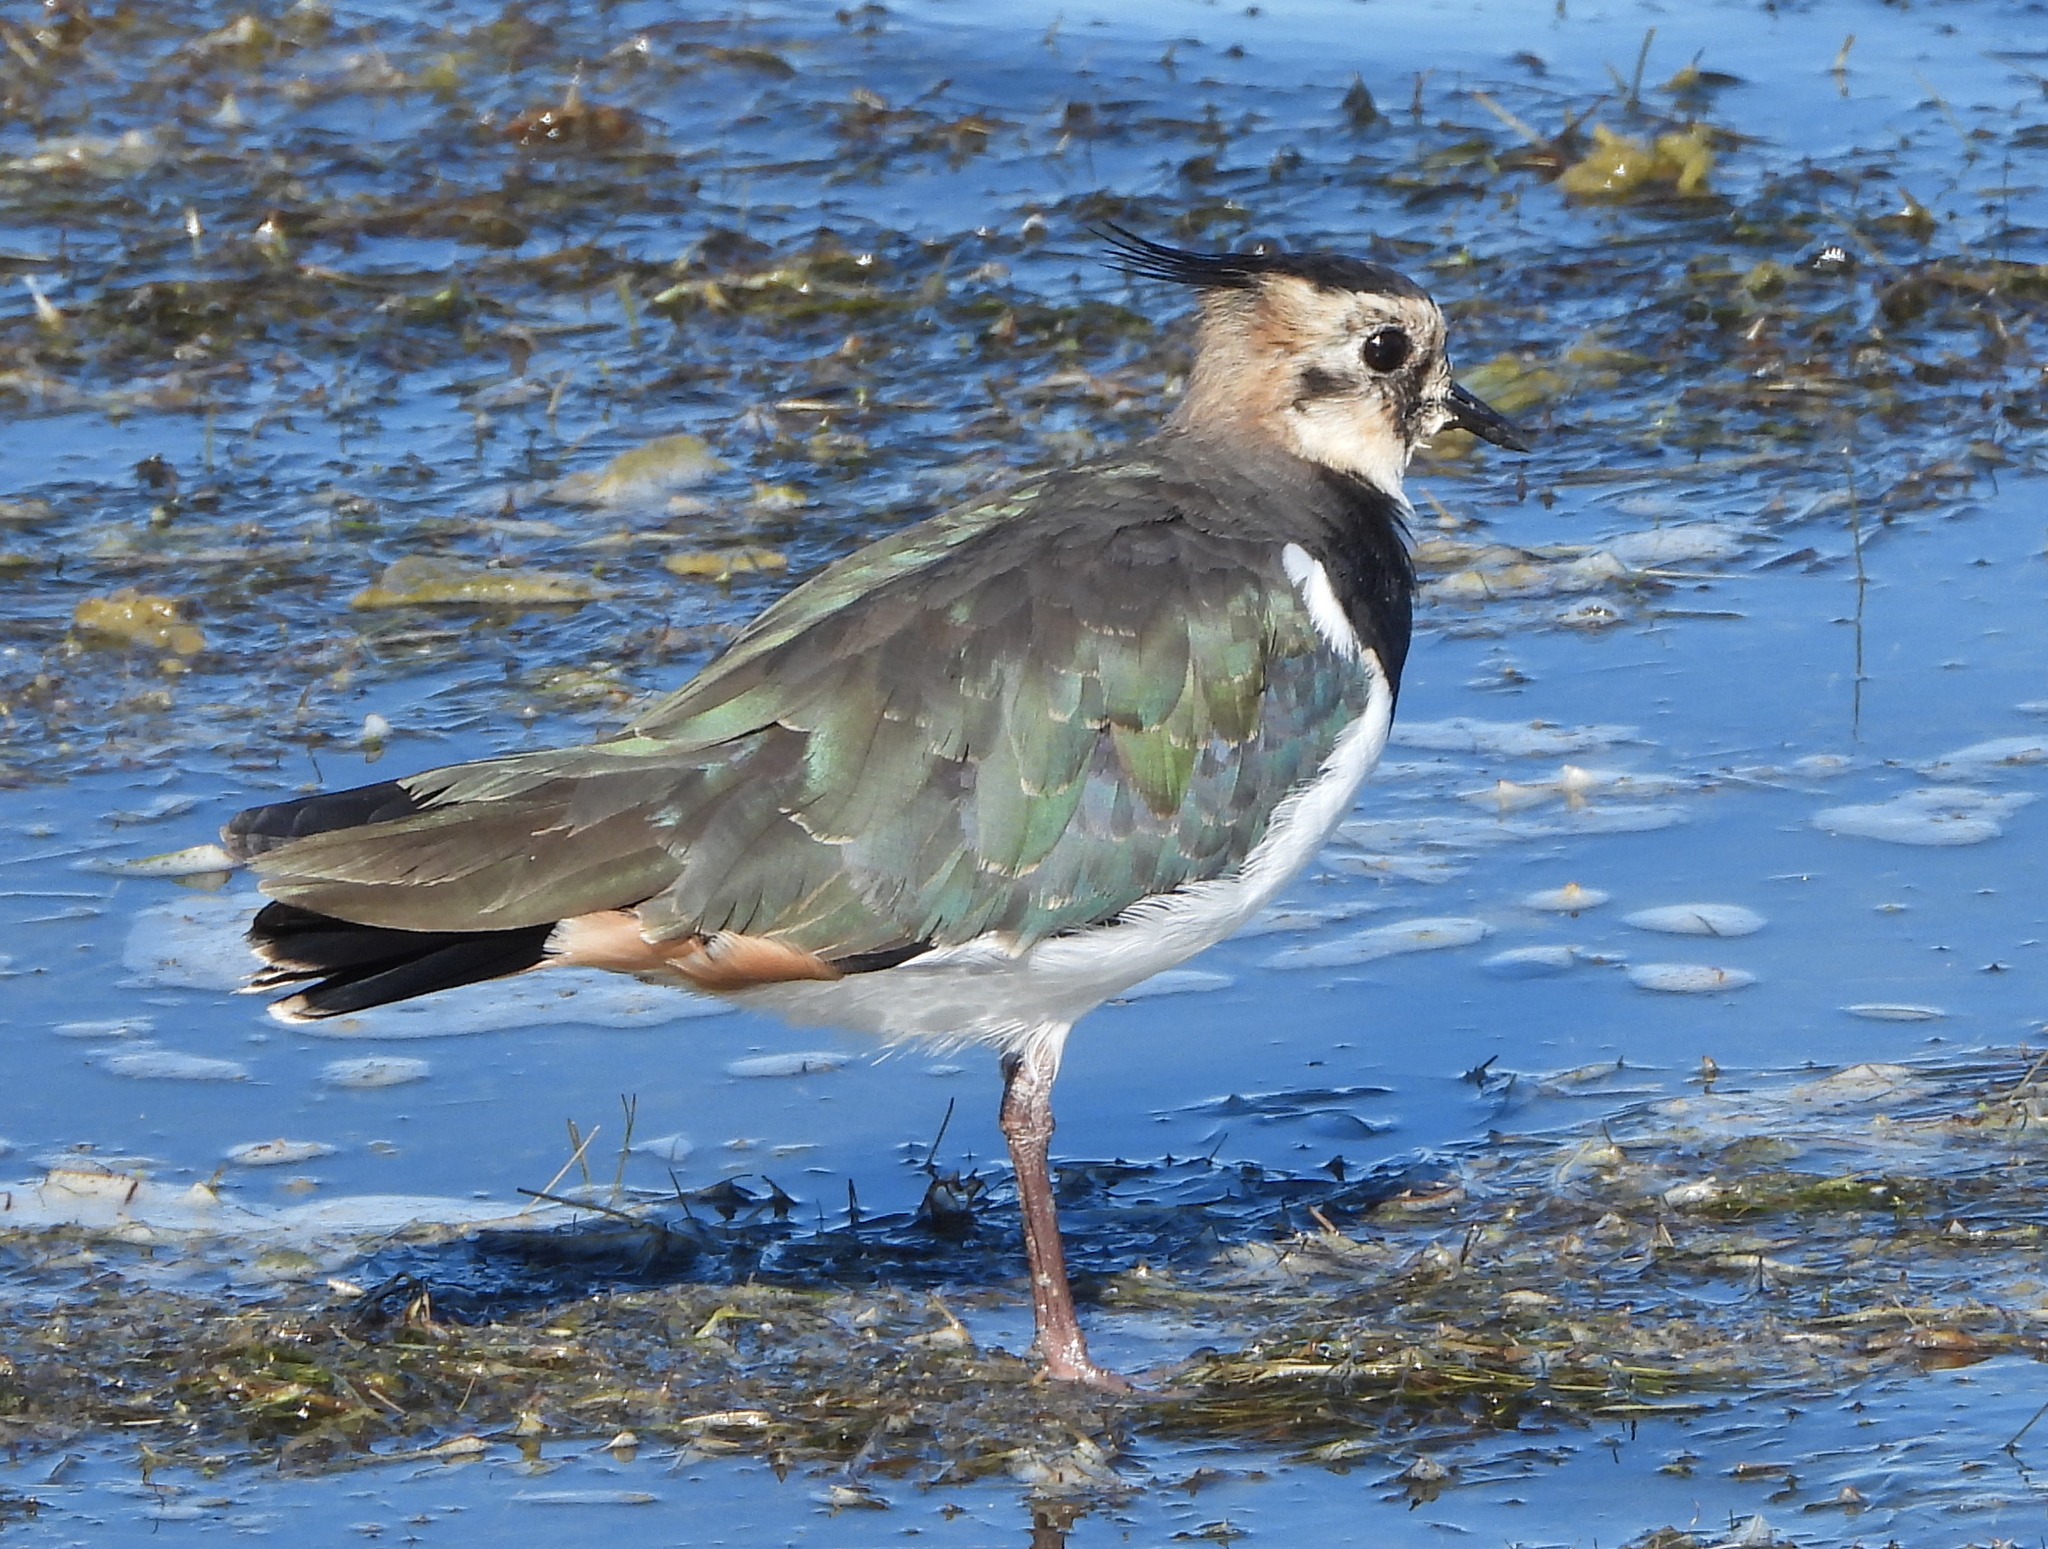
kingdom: Animalia
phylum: Chordata
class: Aves
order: Charadriiformes
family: Charadriidae
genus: Vanellus
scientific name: Vanellus vanellus
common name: Northern lapwing
